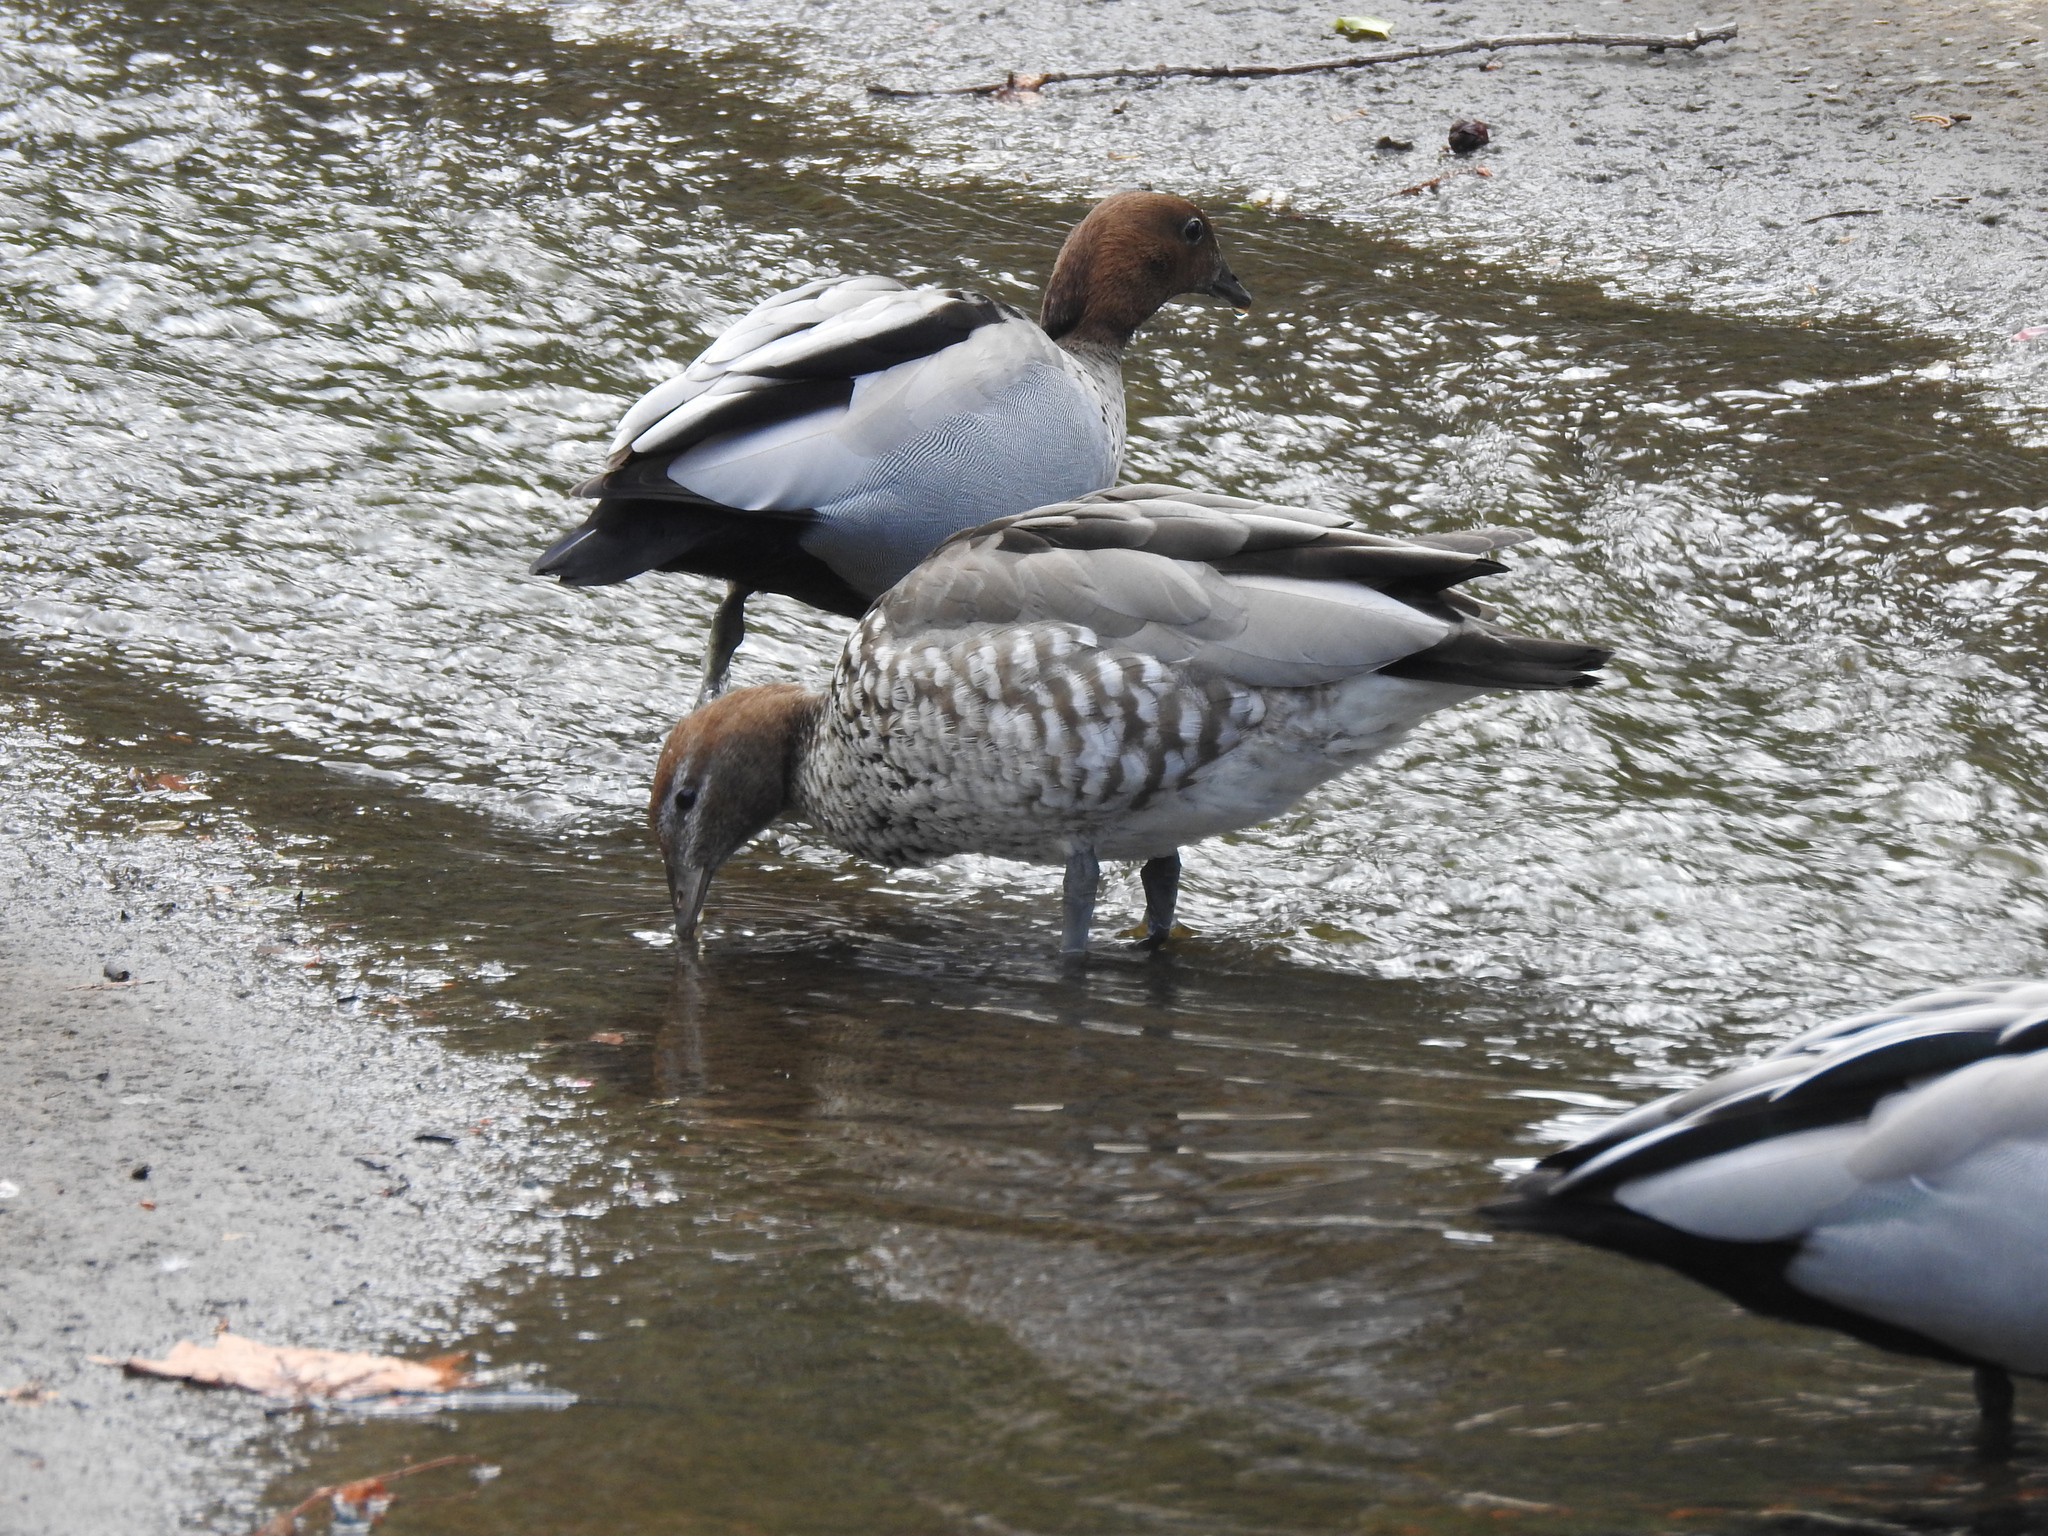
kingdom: Animalia
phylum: Chordata
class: Aves
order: Anseriformes
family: Anatidae
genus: Chenonetta
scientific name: Chenonetta jubata
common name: Maned duck
